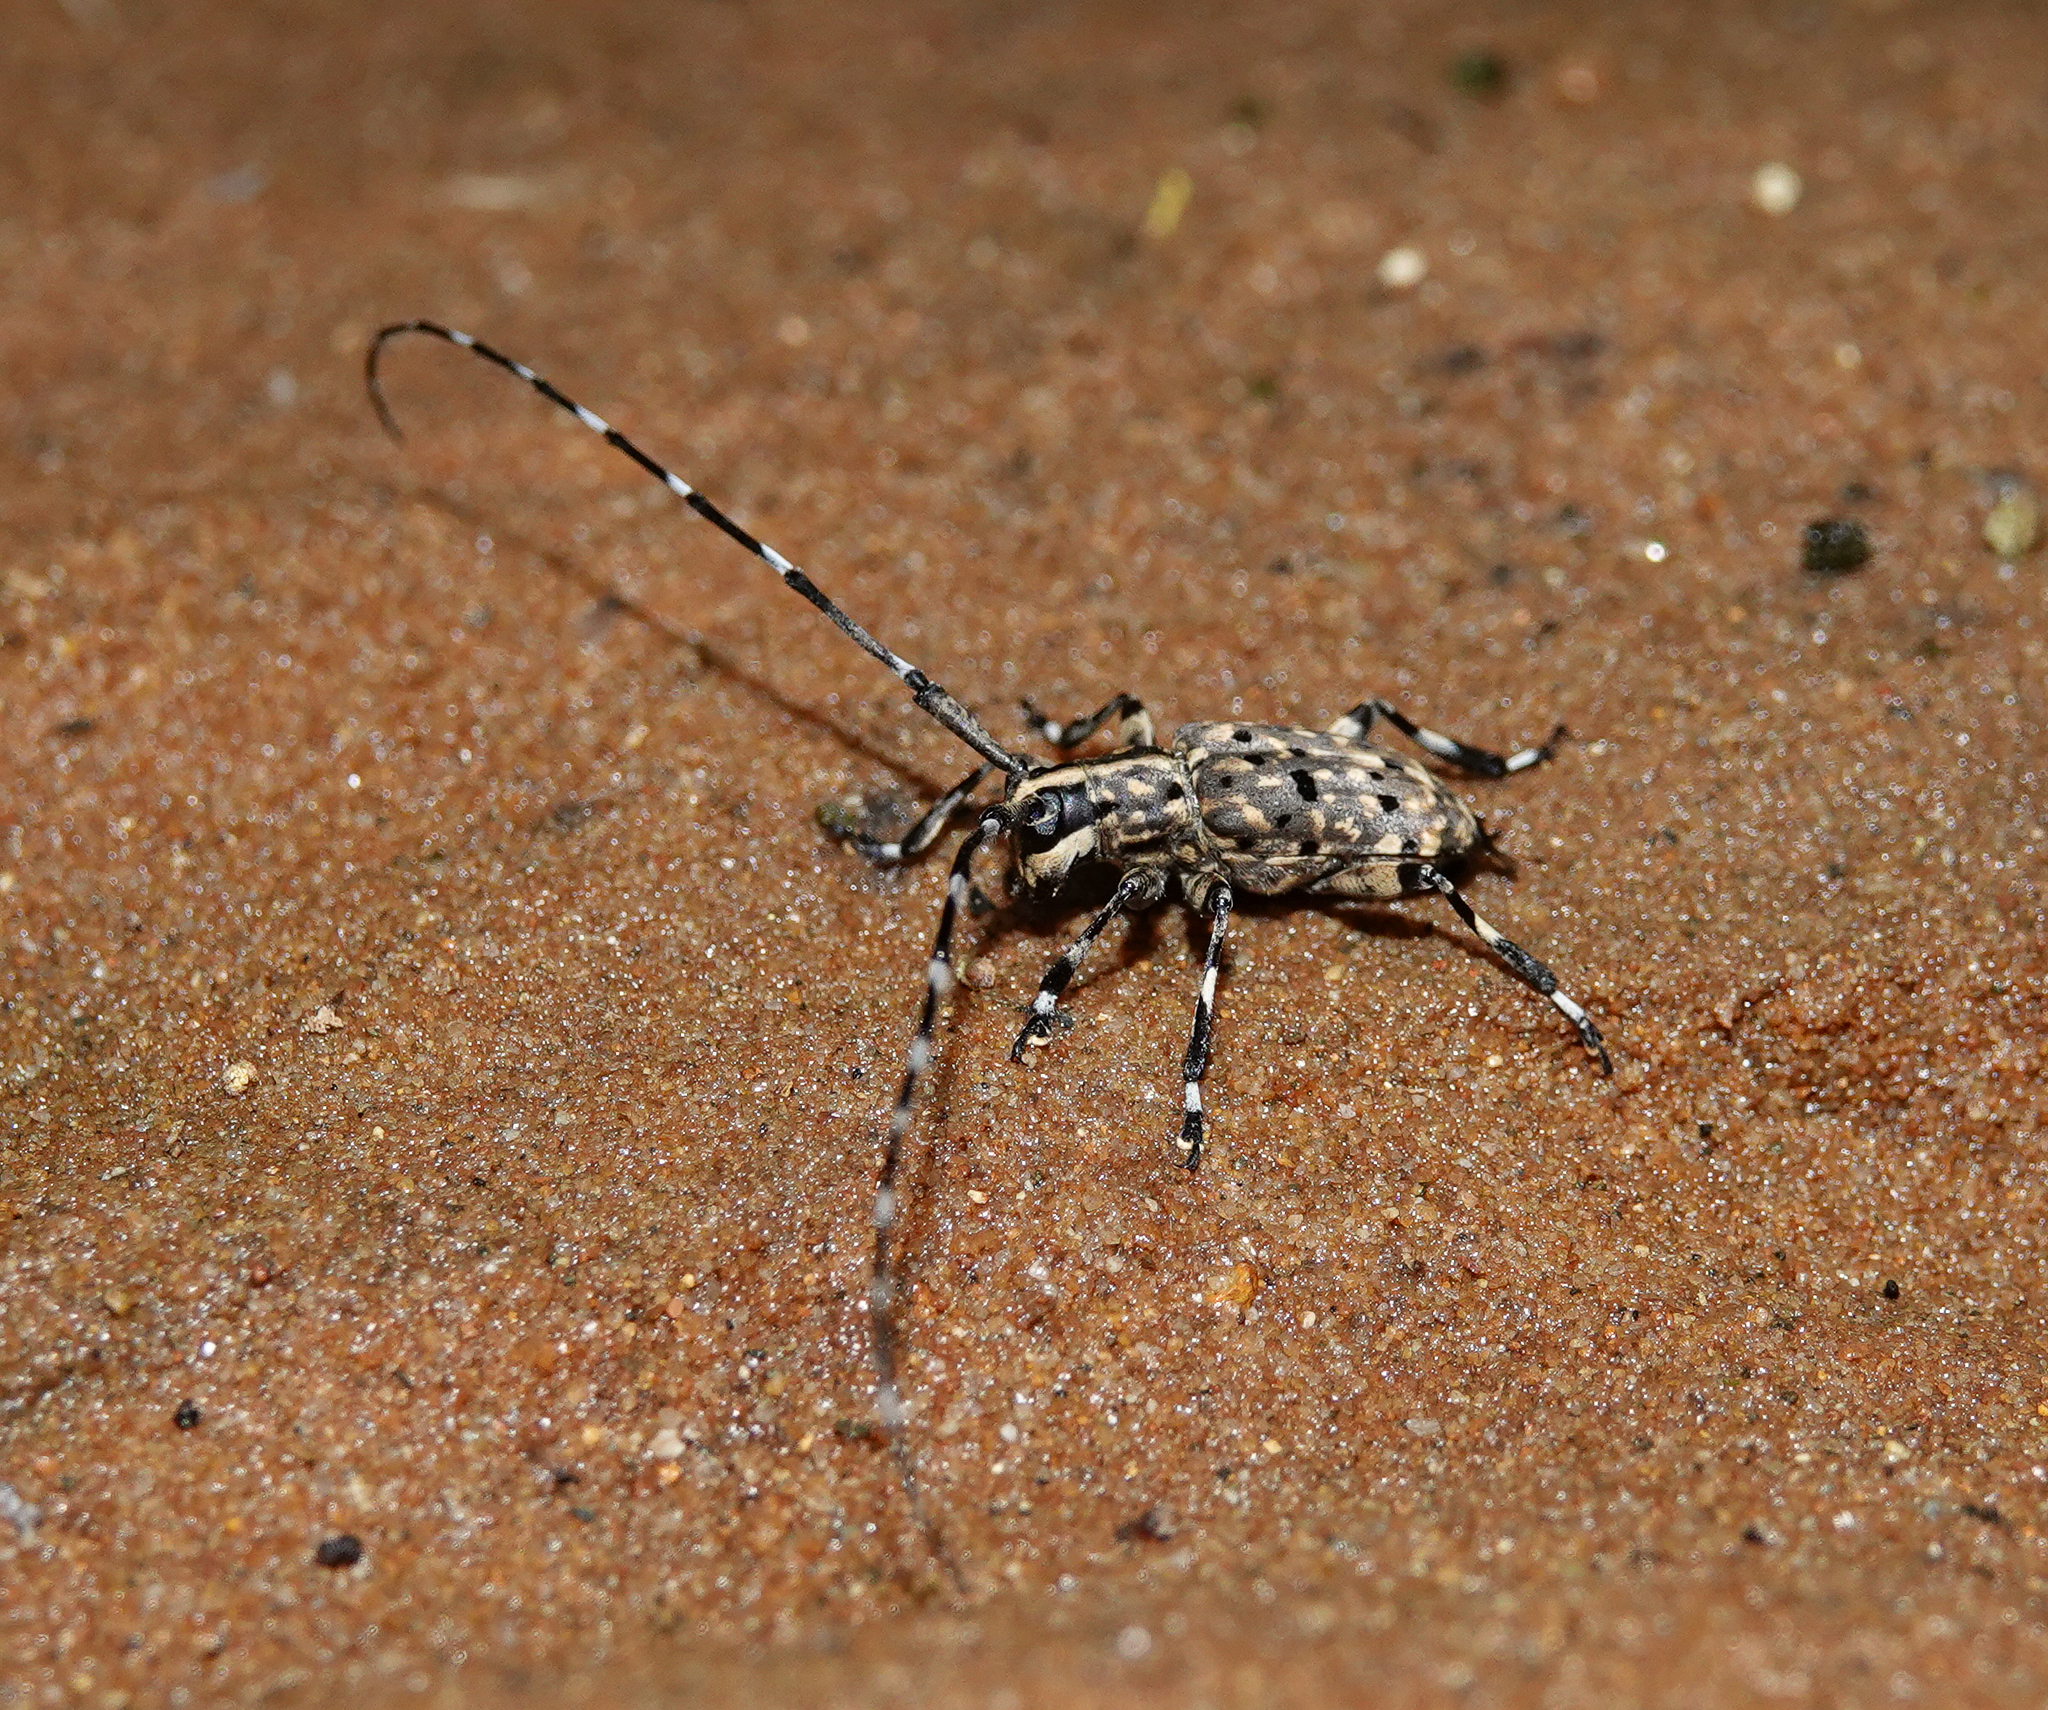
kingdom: Animalia
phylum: Arthropoda
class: Insecta
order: Coleoptera
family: Cerambycidae
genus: Mesocacia
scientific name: Mesocacia multimaculata
